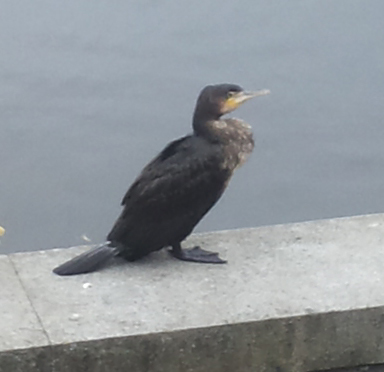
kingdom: Animalia
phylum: Chordata
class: Aves
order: Suliformes
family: Phalacrocoracidae
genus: Phalacrocorax
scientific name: Phalacrocorax carbo
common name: Great cormorant
